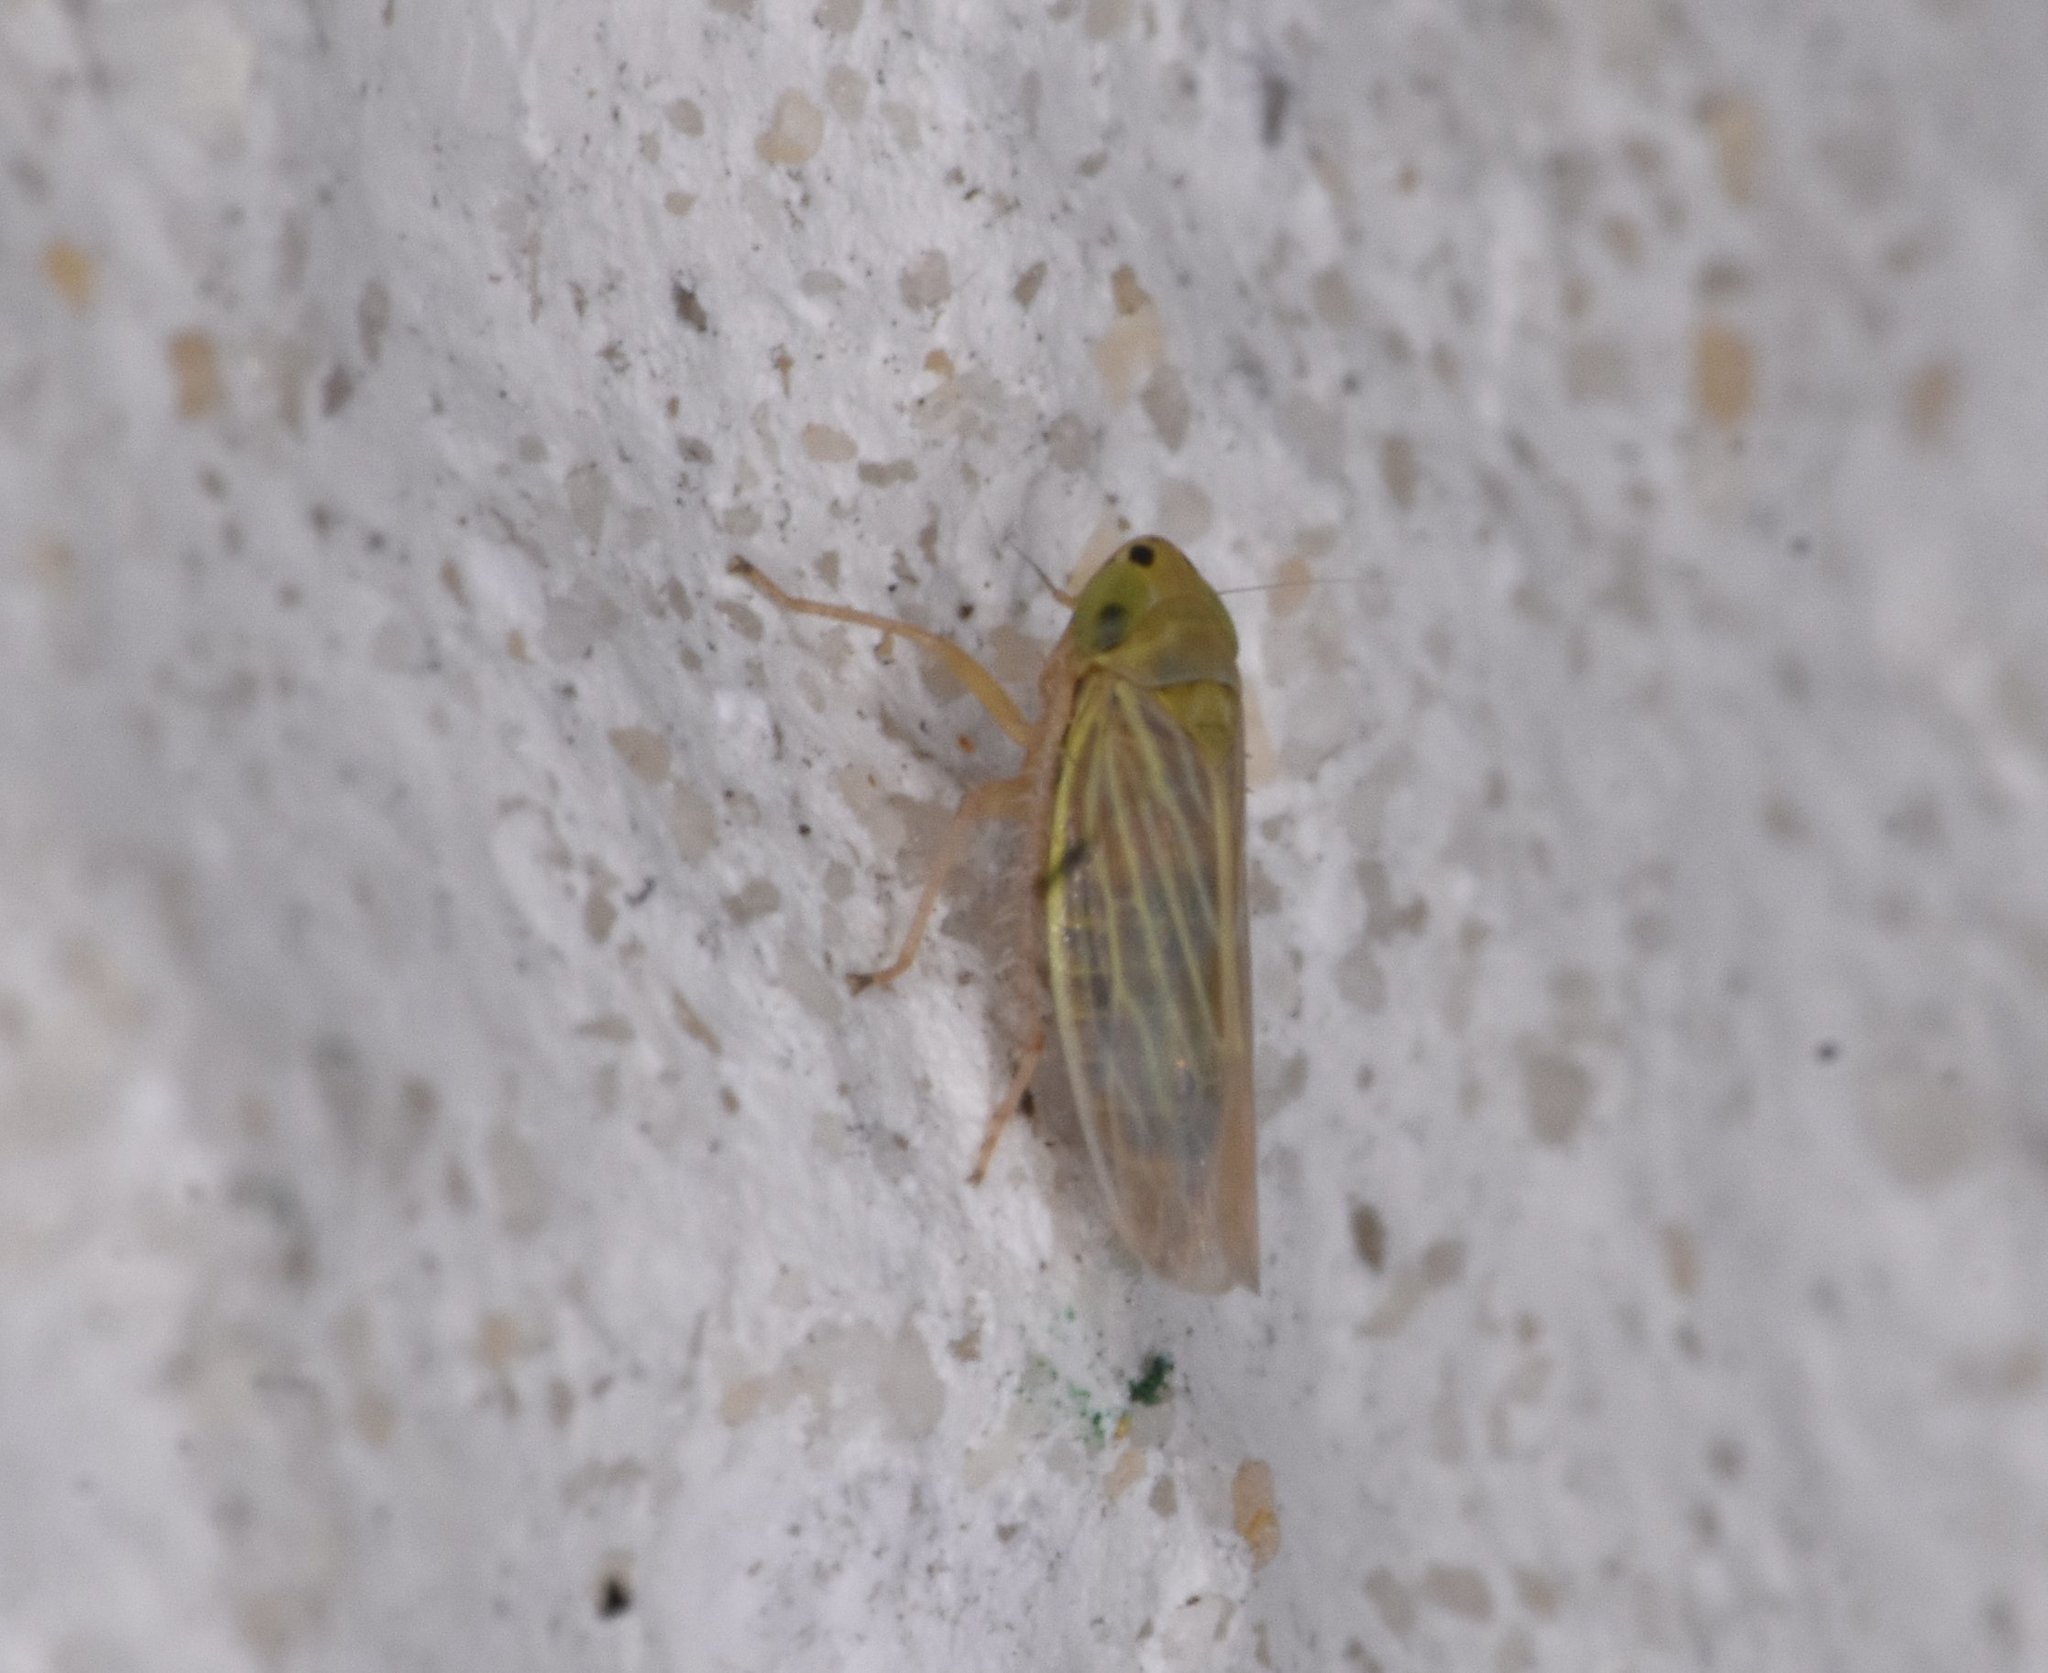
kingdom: Animalia
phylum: Arthropoda
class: Insecta
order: Hemiptera
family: Cicadellidae
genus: Graminella
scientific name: Graminella cognita
